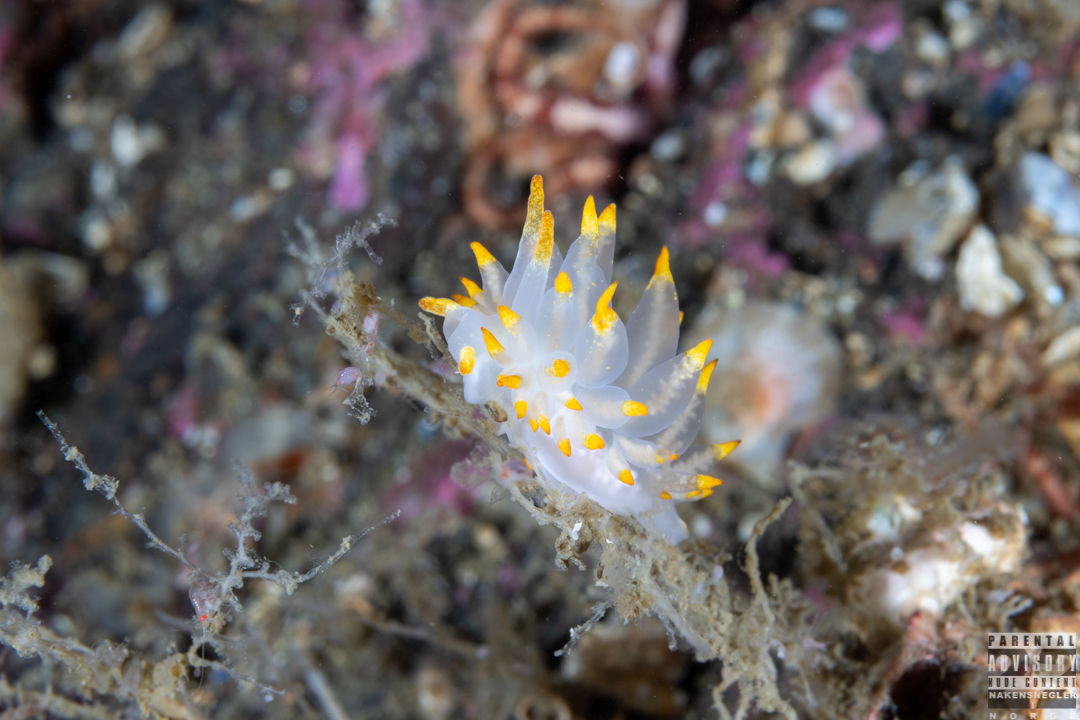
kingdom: Animalia
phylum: Mollusca
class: Gastropoda
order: Nudibranchia
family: Eubranchidae
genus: Amphorina
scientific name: Amphorina farrani
